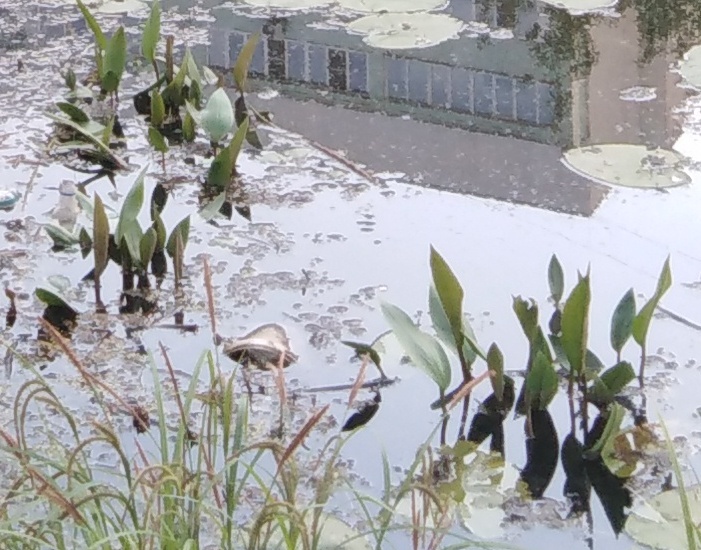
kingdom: Plantae
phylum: Tracheophyta
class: Liliopsida
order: Alismatales
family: Alismataceae
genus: Alisma
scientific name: Alisma plantago-aquatica
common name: Water-plantain
